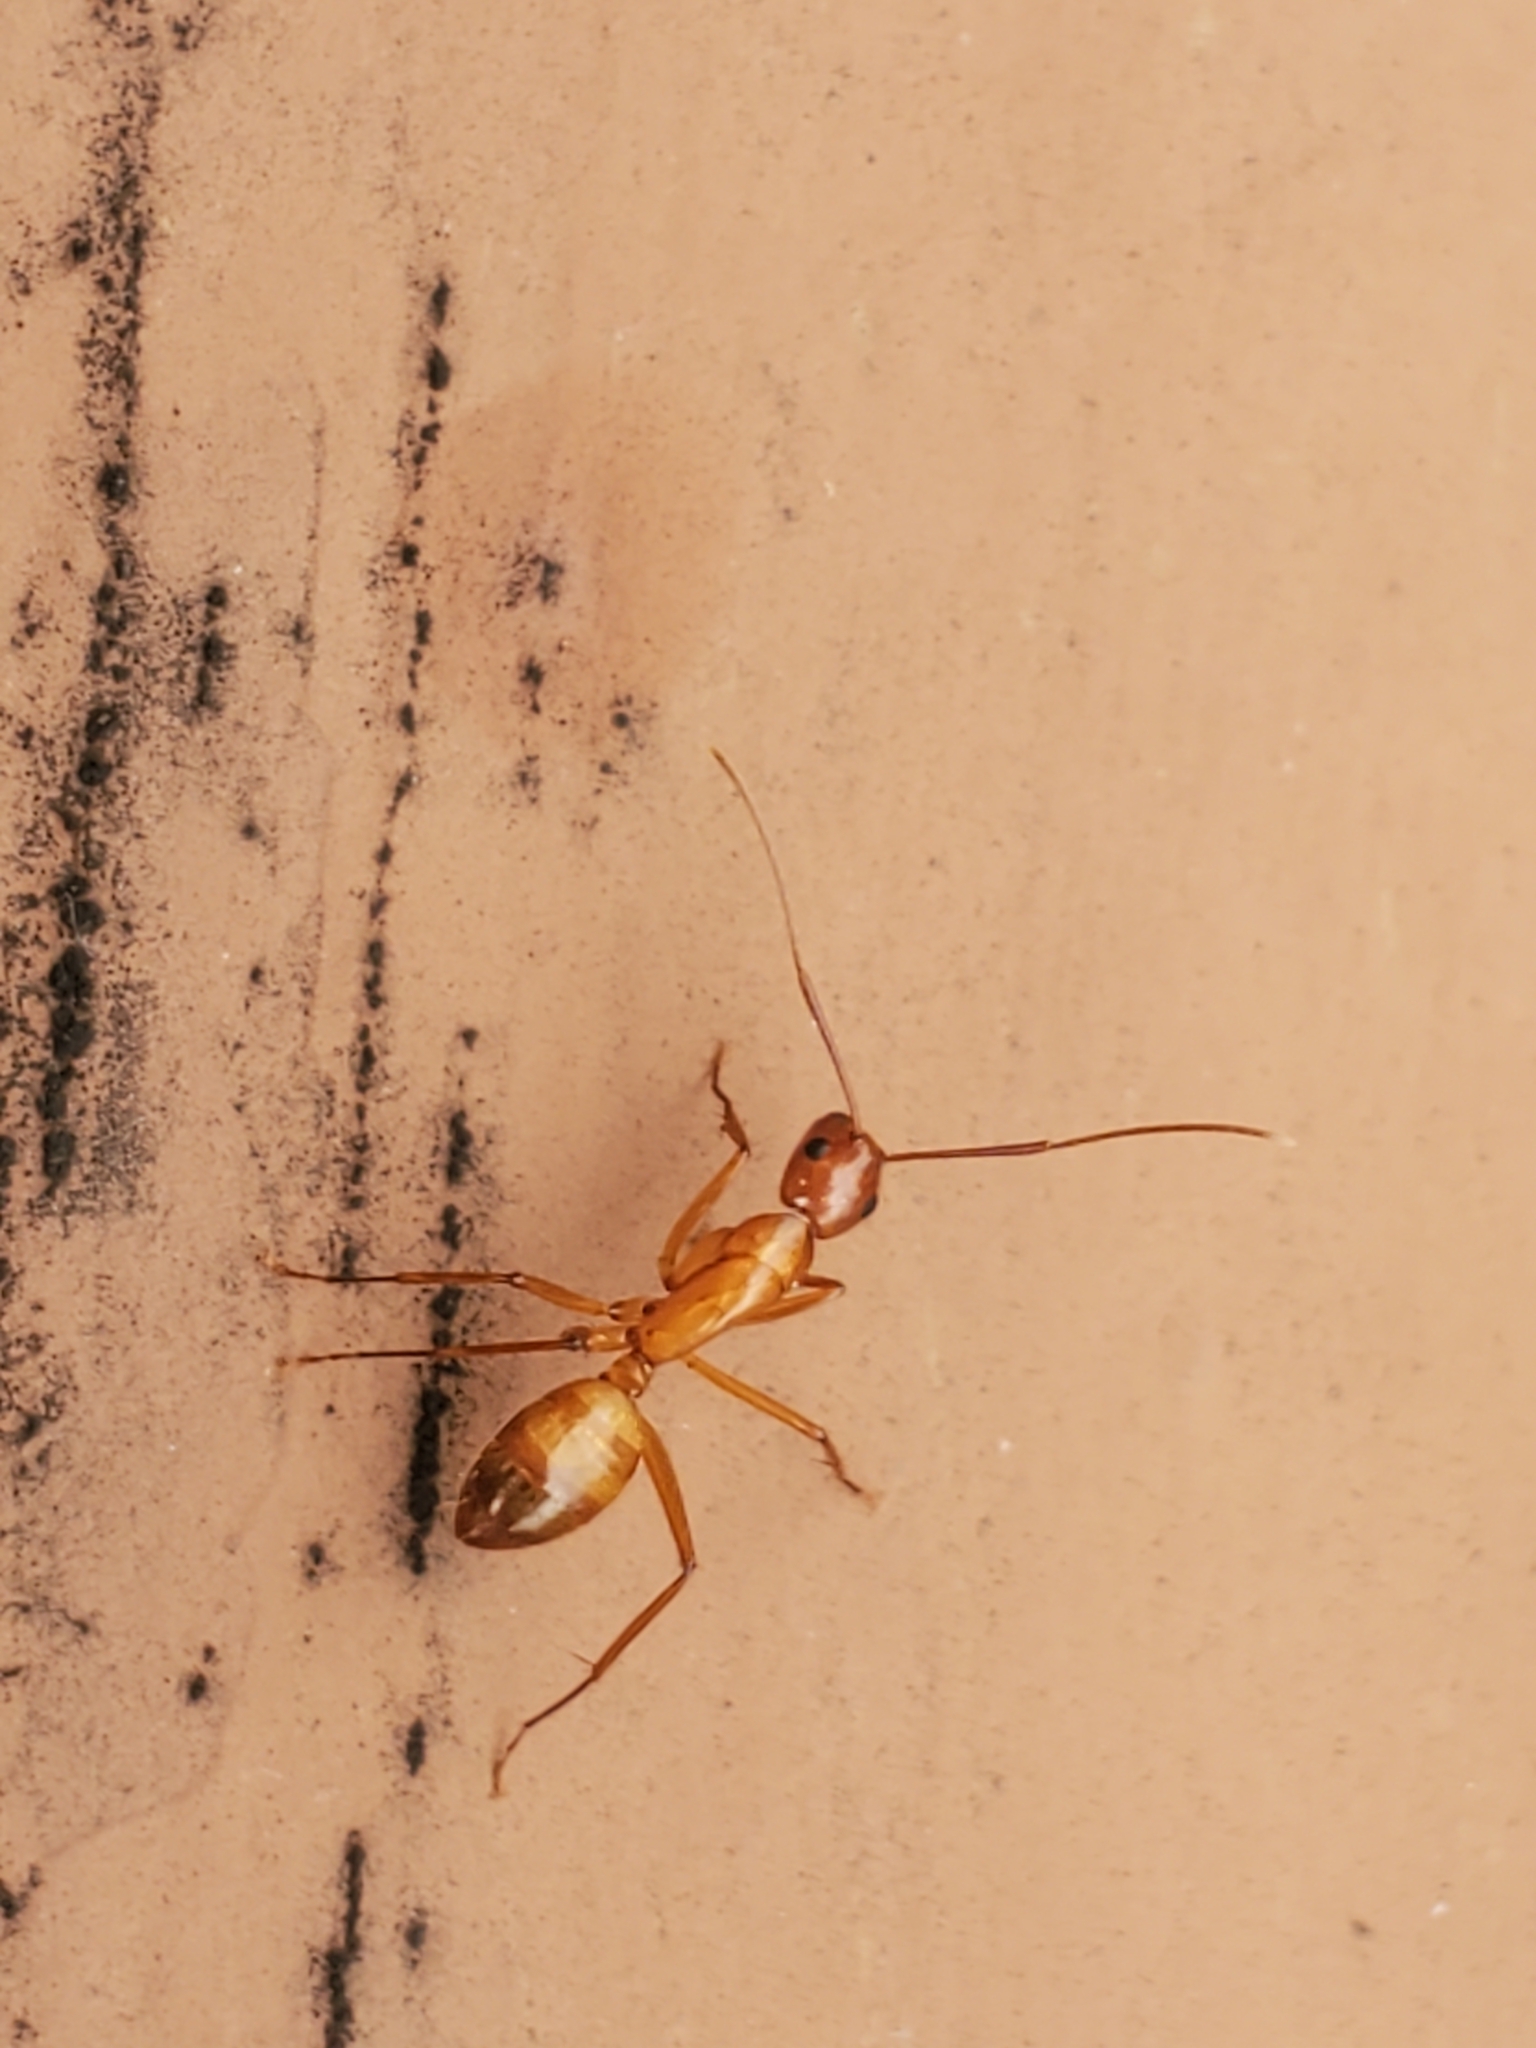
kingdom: Animalia
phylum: Arthropoda
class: Insecta
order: Hymenoptera
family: Formicidae
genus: Camponotus
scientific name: Camponotus castaneus
